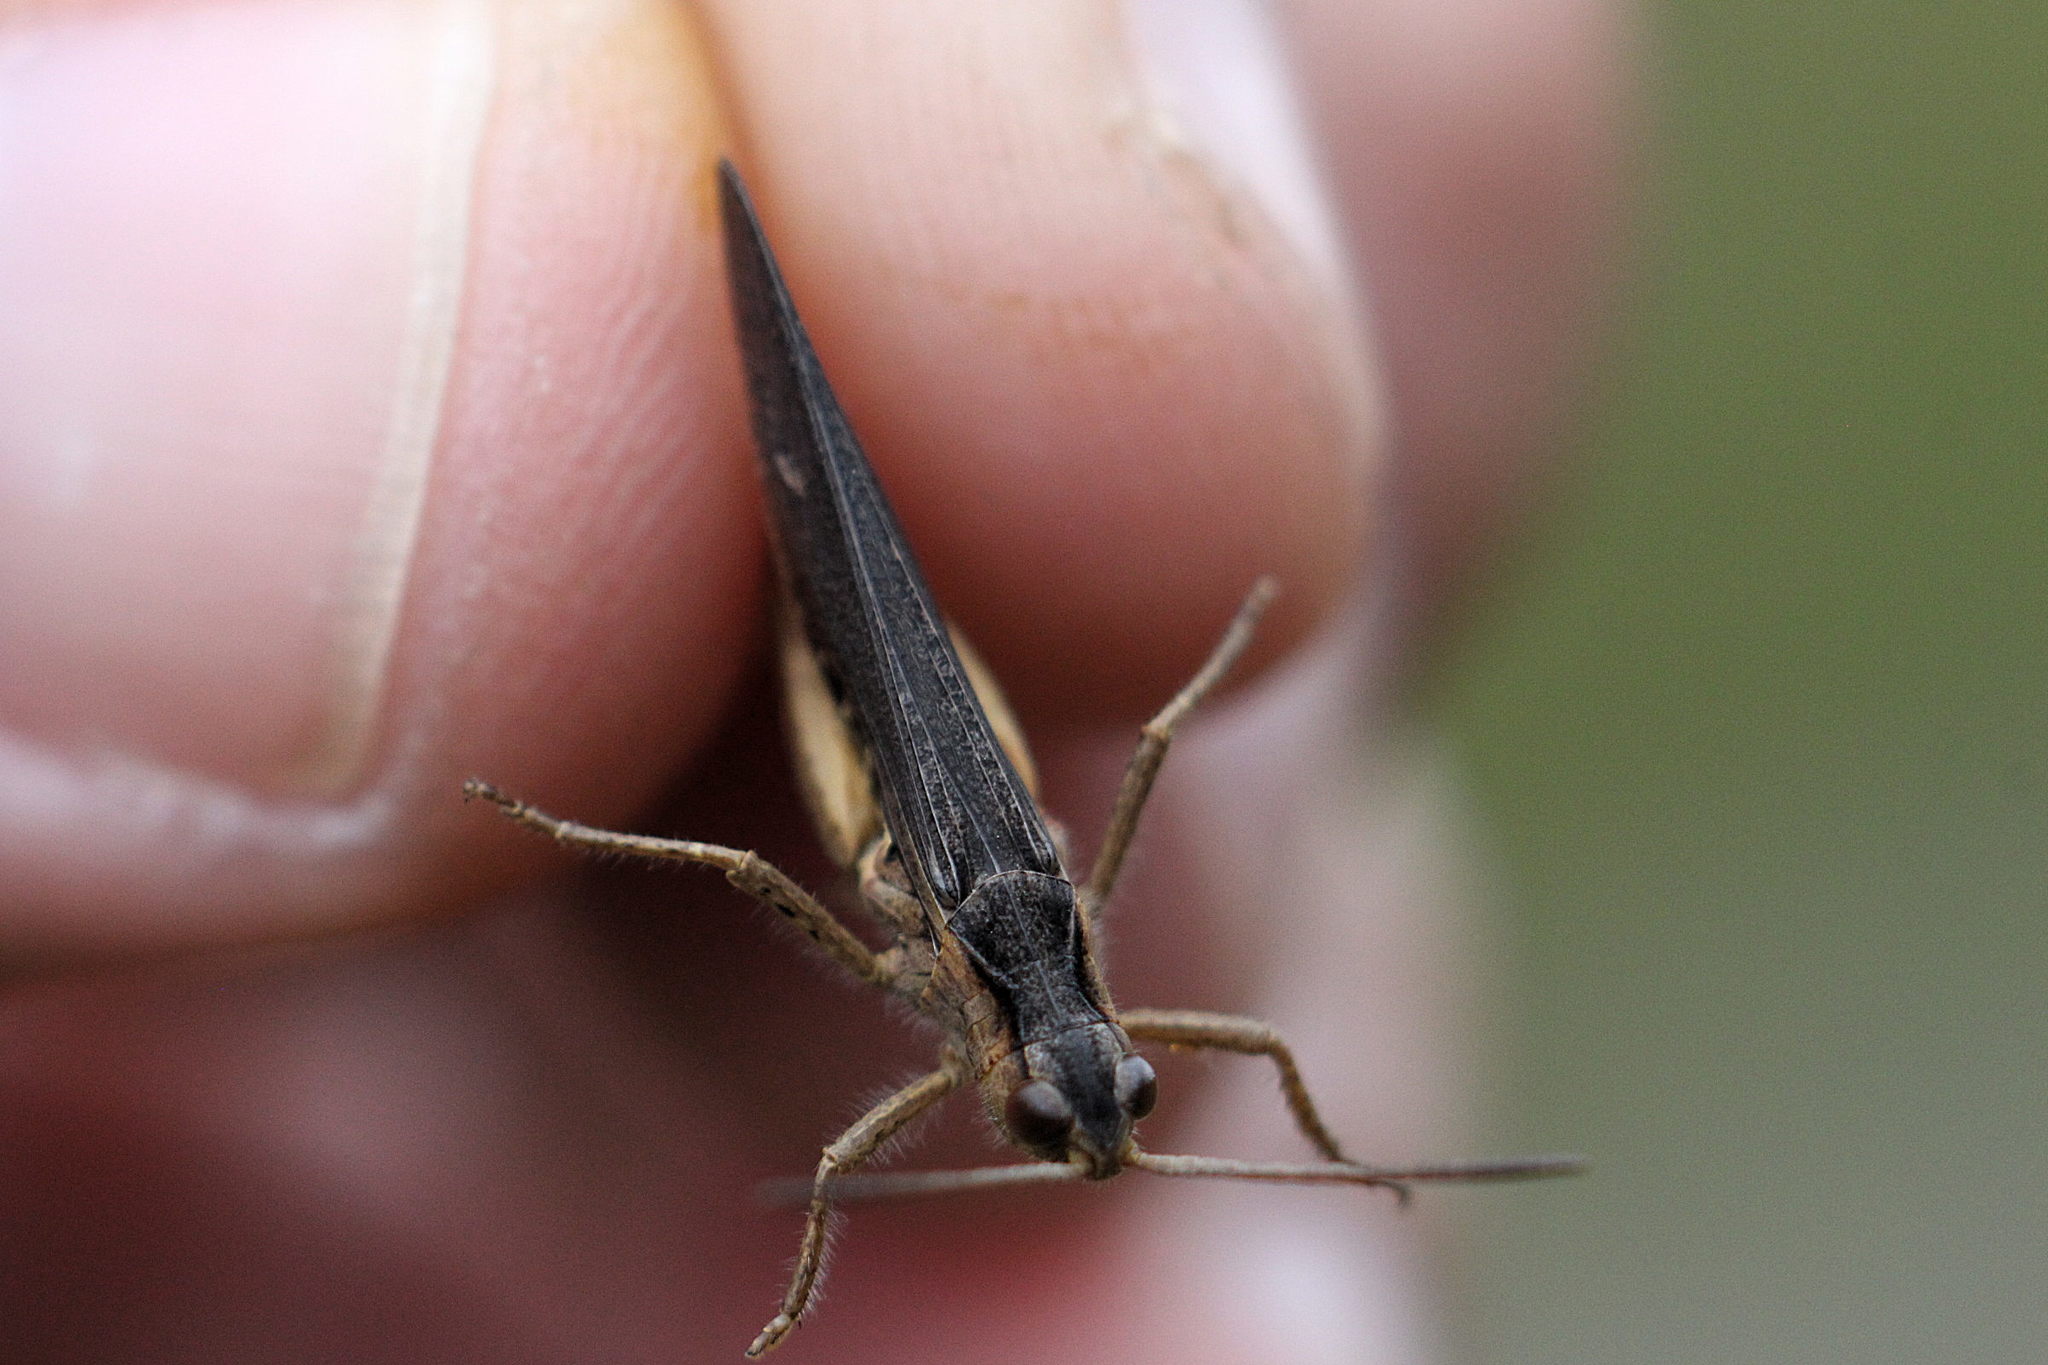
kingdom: Animalia
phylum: Arthropoda
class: Insecta
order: Orthoptera
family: Acrididae
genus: Chorthippus
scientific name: Chorthippus brunneus
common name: Field grasshopper
